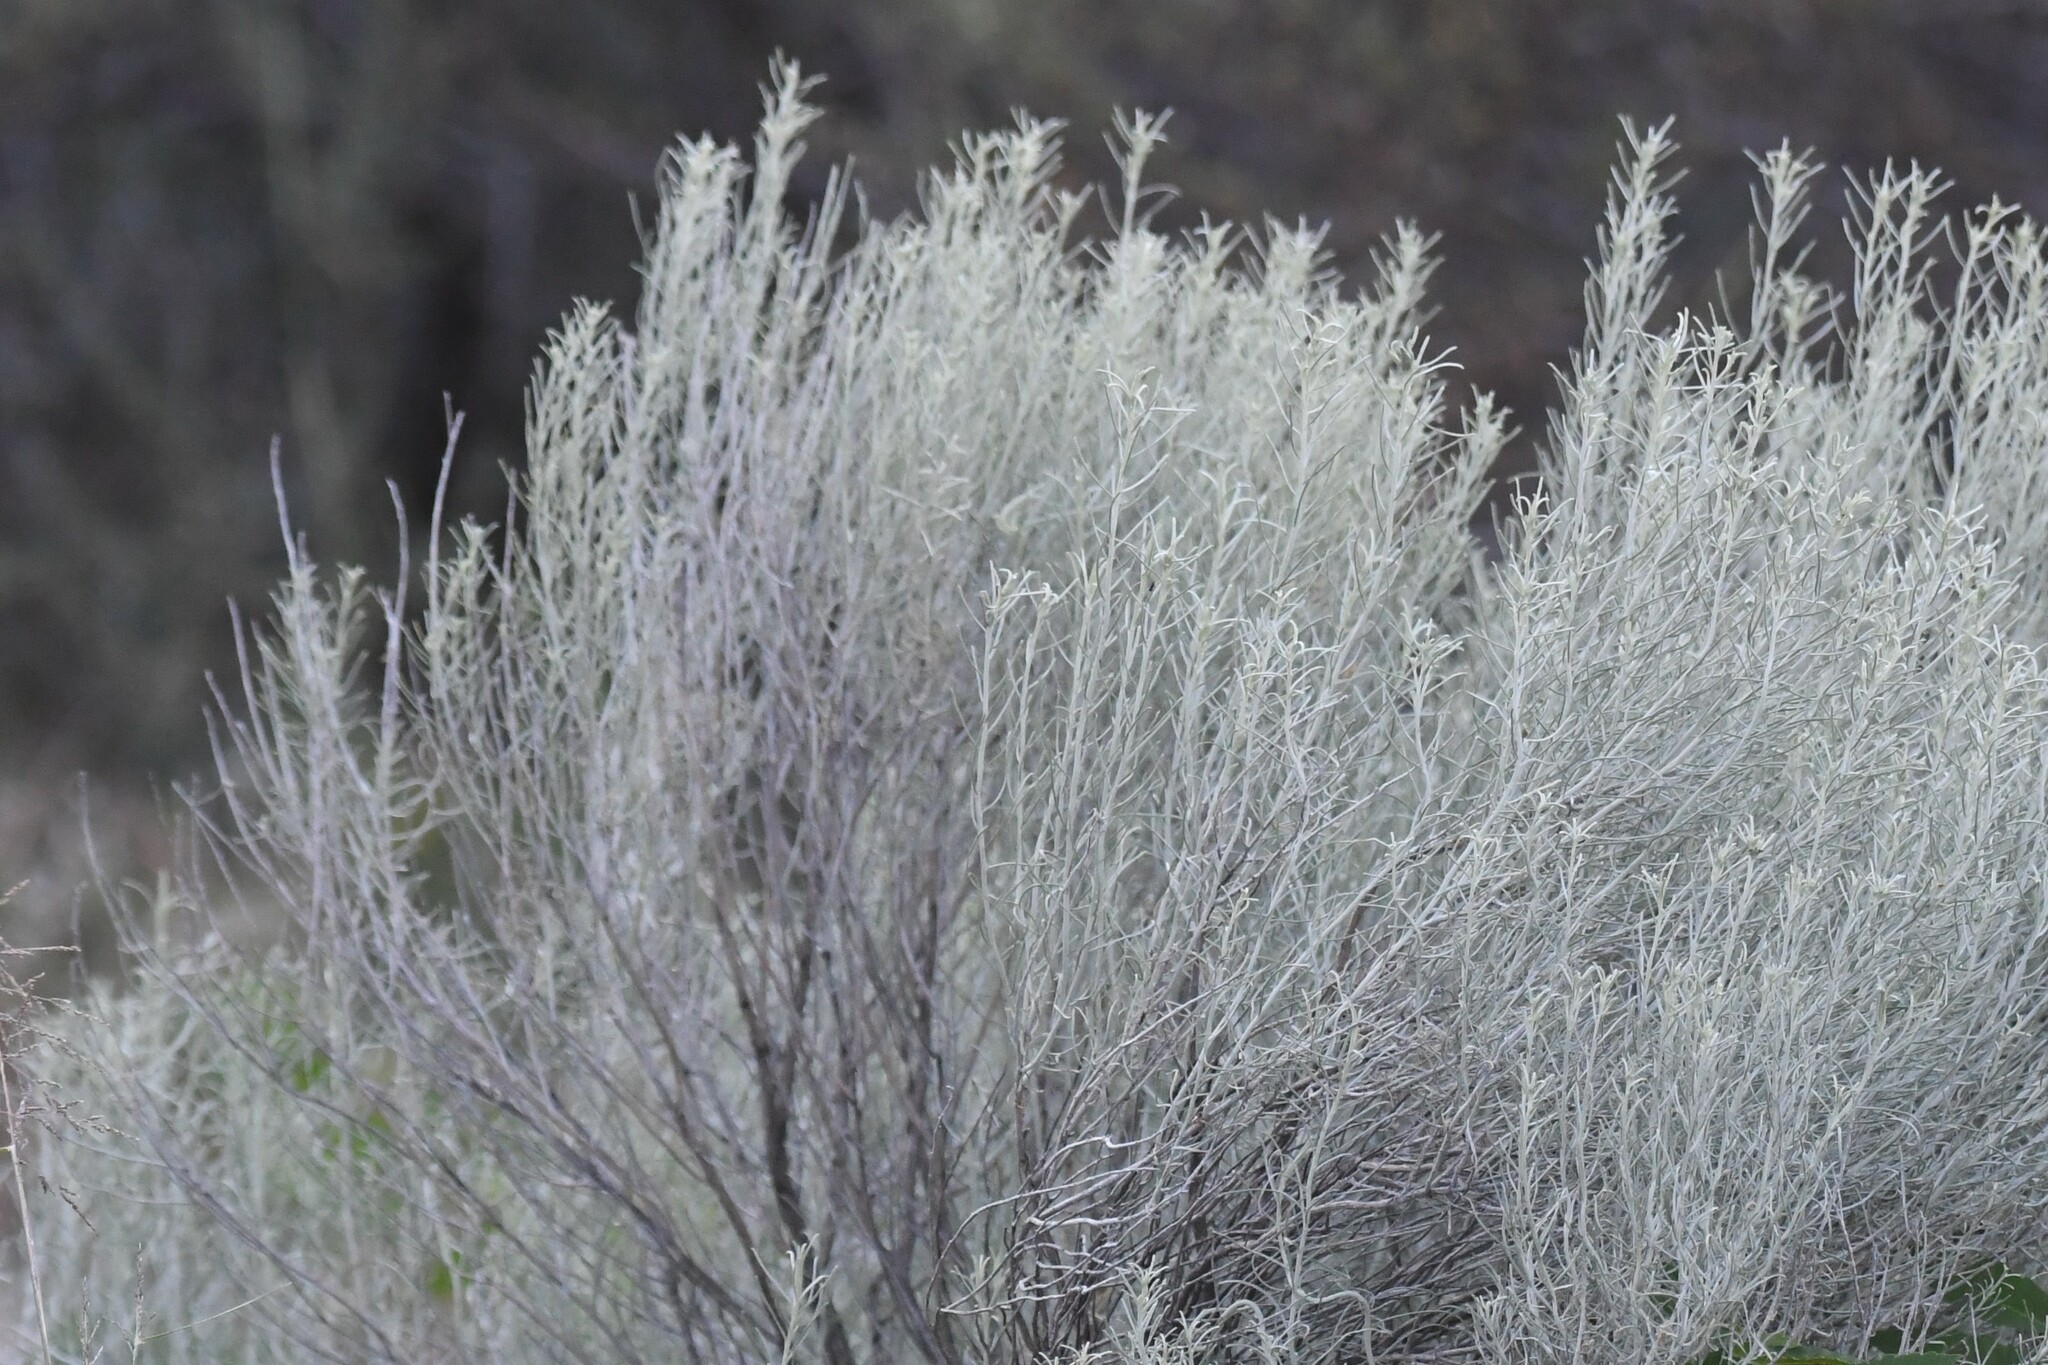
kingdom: Plantae
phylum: Tracheophyta
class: Magnoliopsida
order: Asterales
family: Asteraceae
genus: Ericameria
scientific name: Ericameria nauseosa
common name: Rubber rabbitbrush
